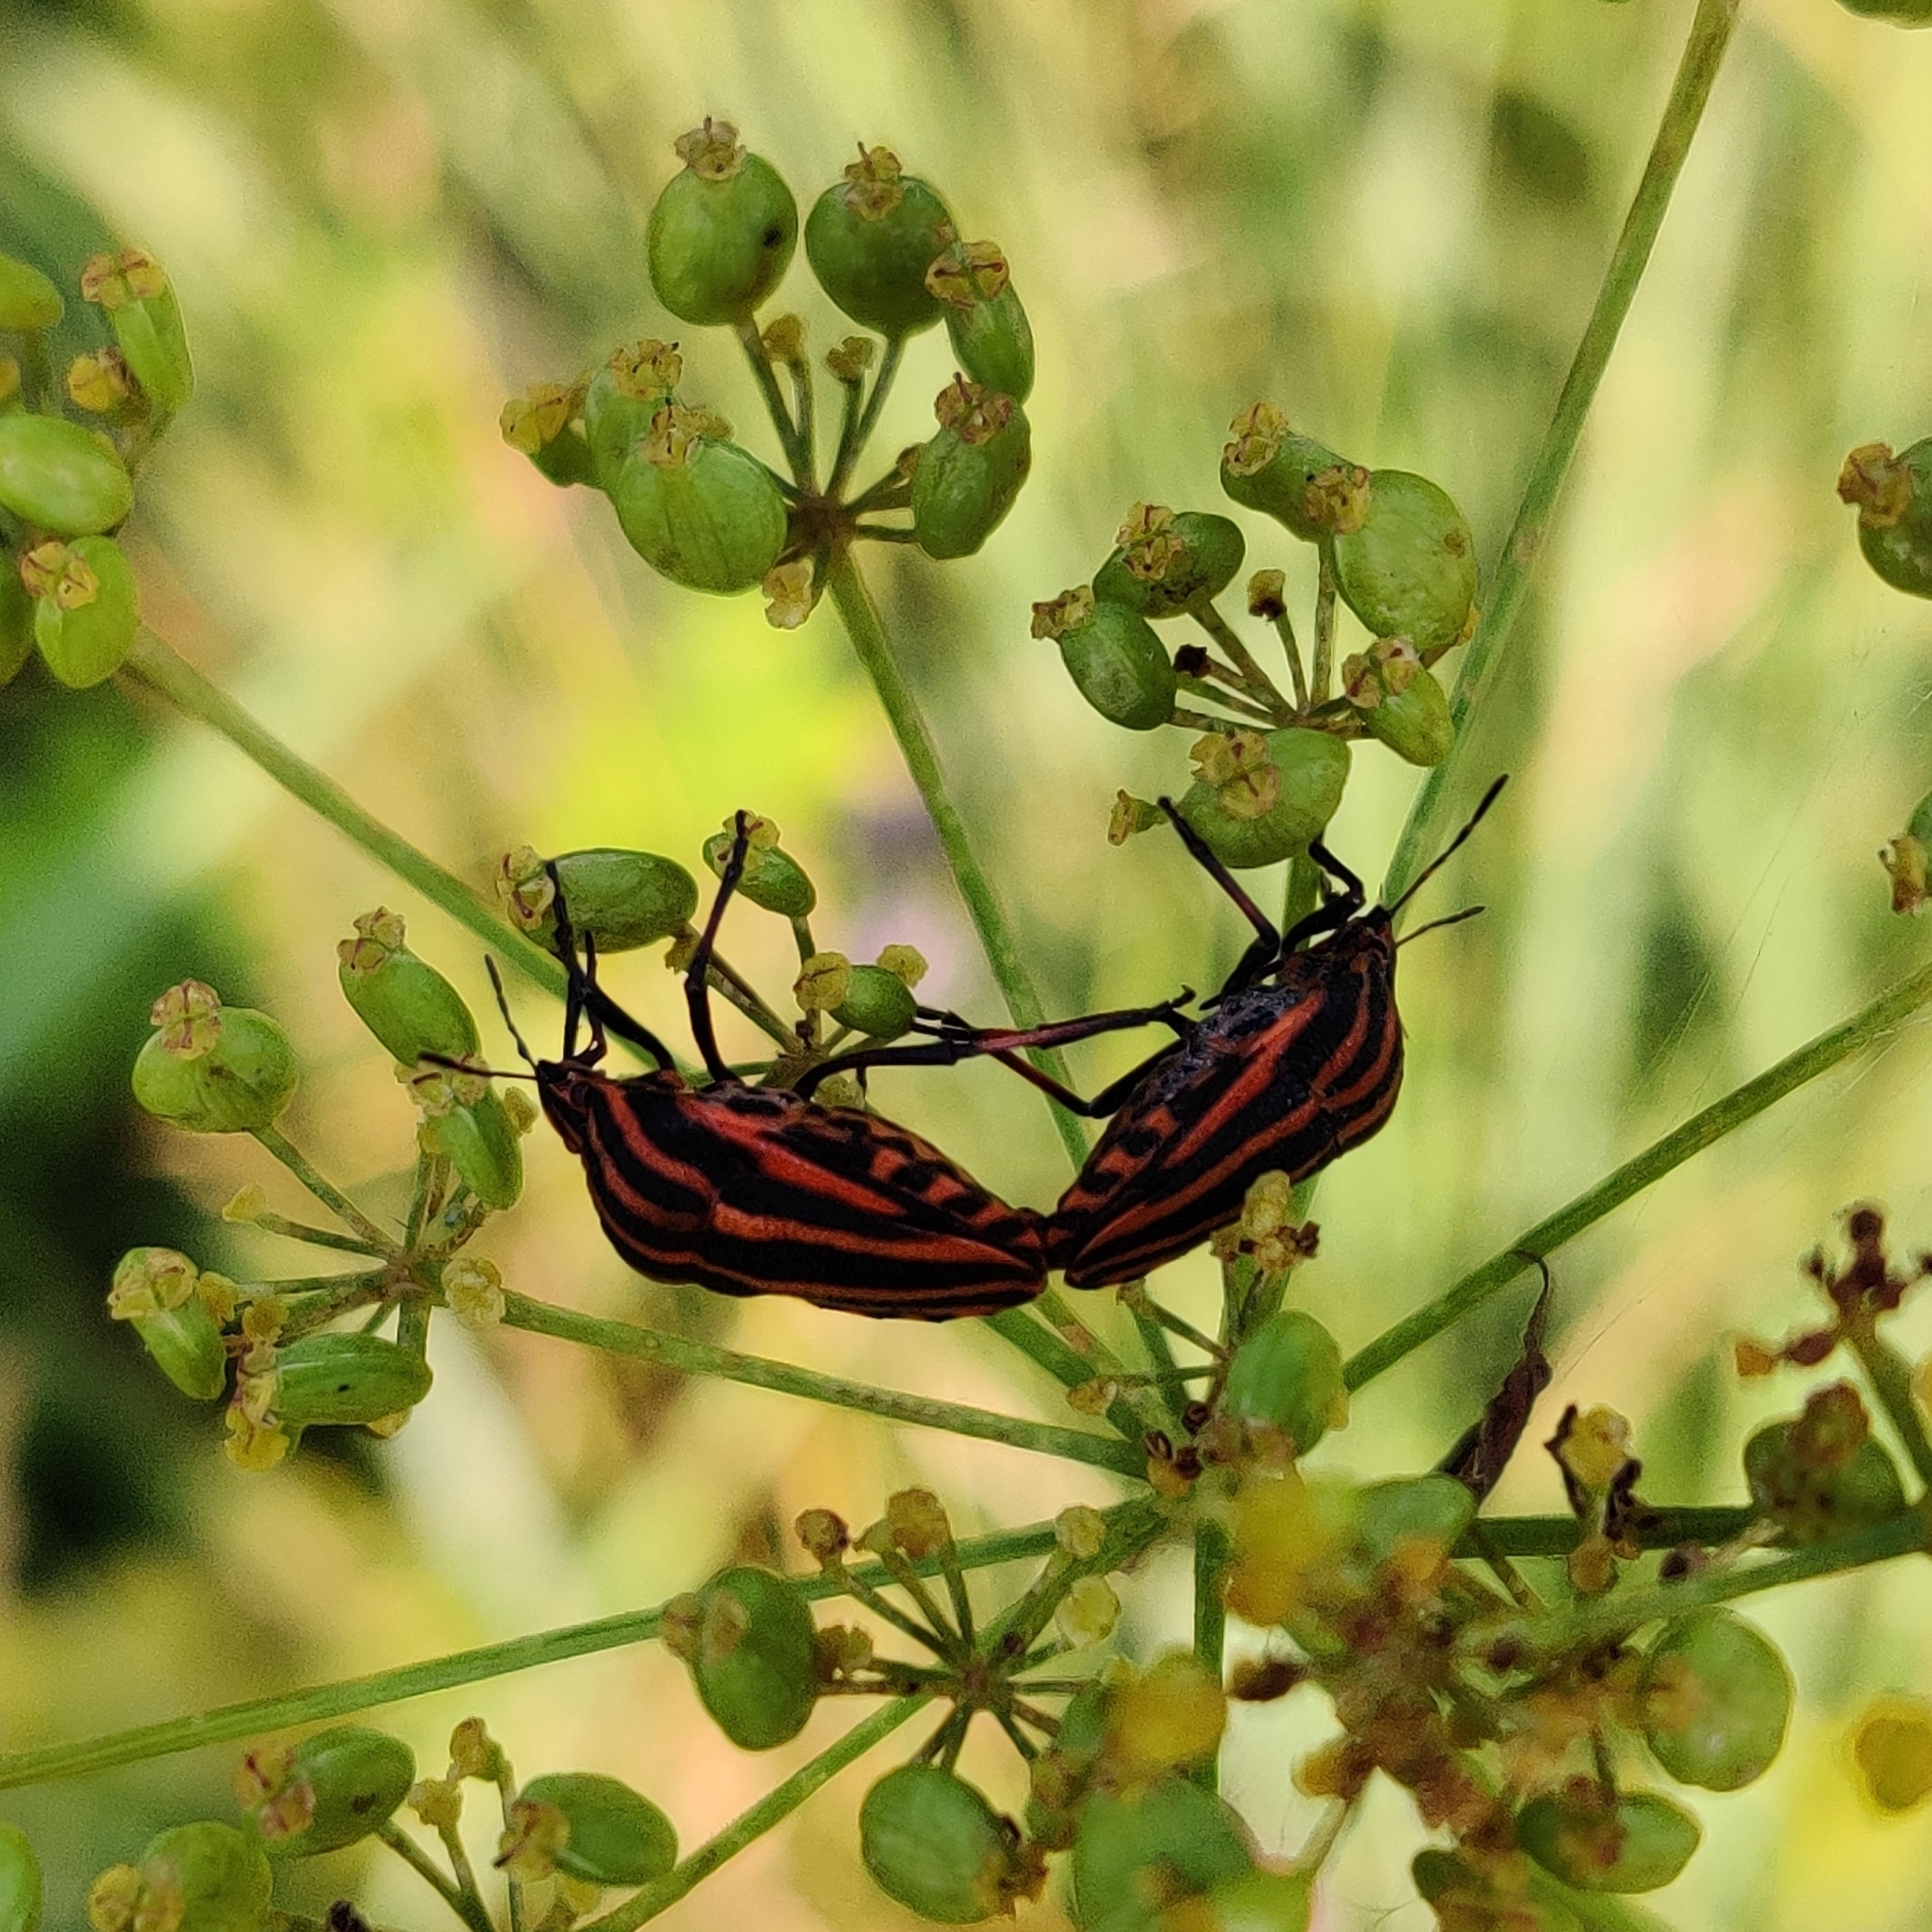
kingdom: Animalia
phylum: Arthropoda
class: Insecta
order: Hemiptera
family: Pentatomidae
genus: Graphosoma
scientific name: Graphosoma italicum
